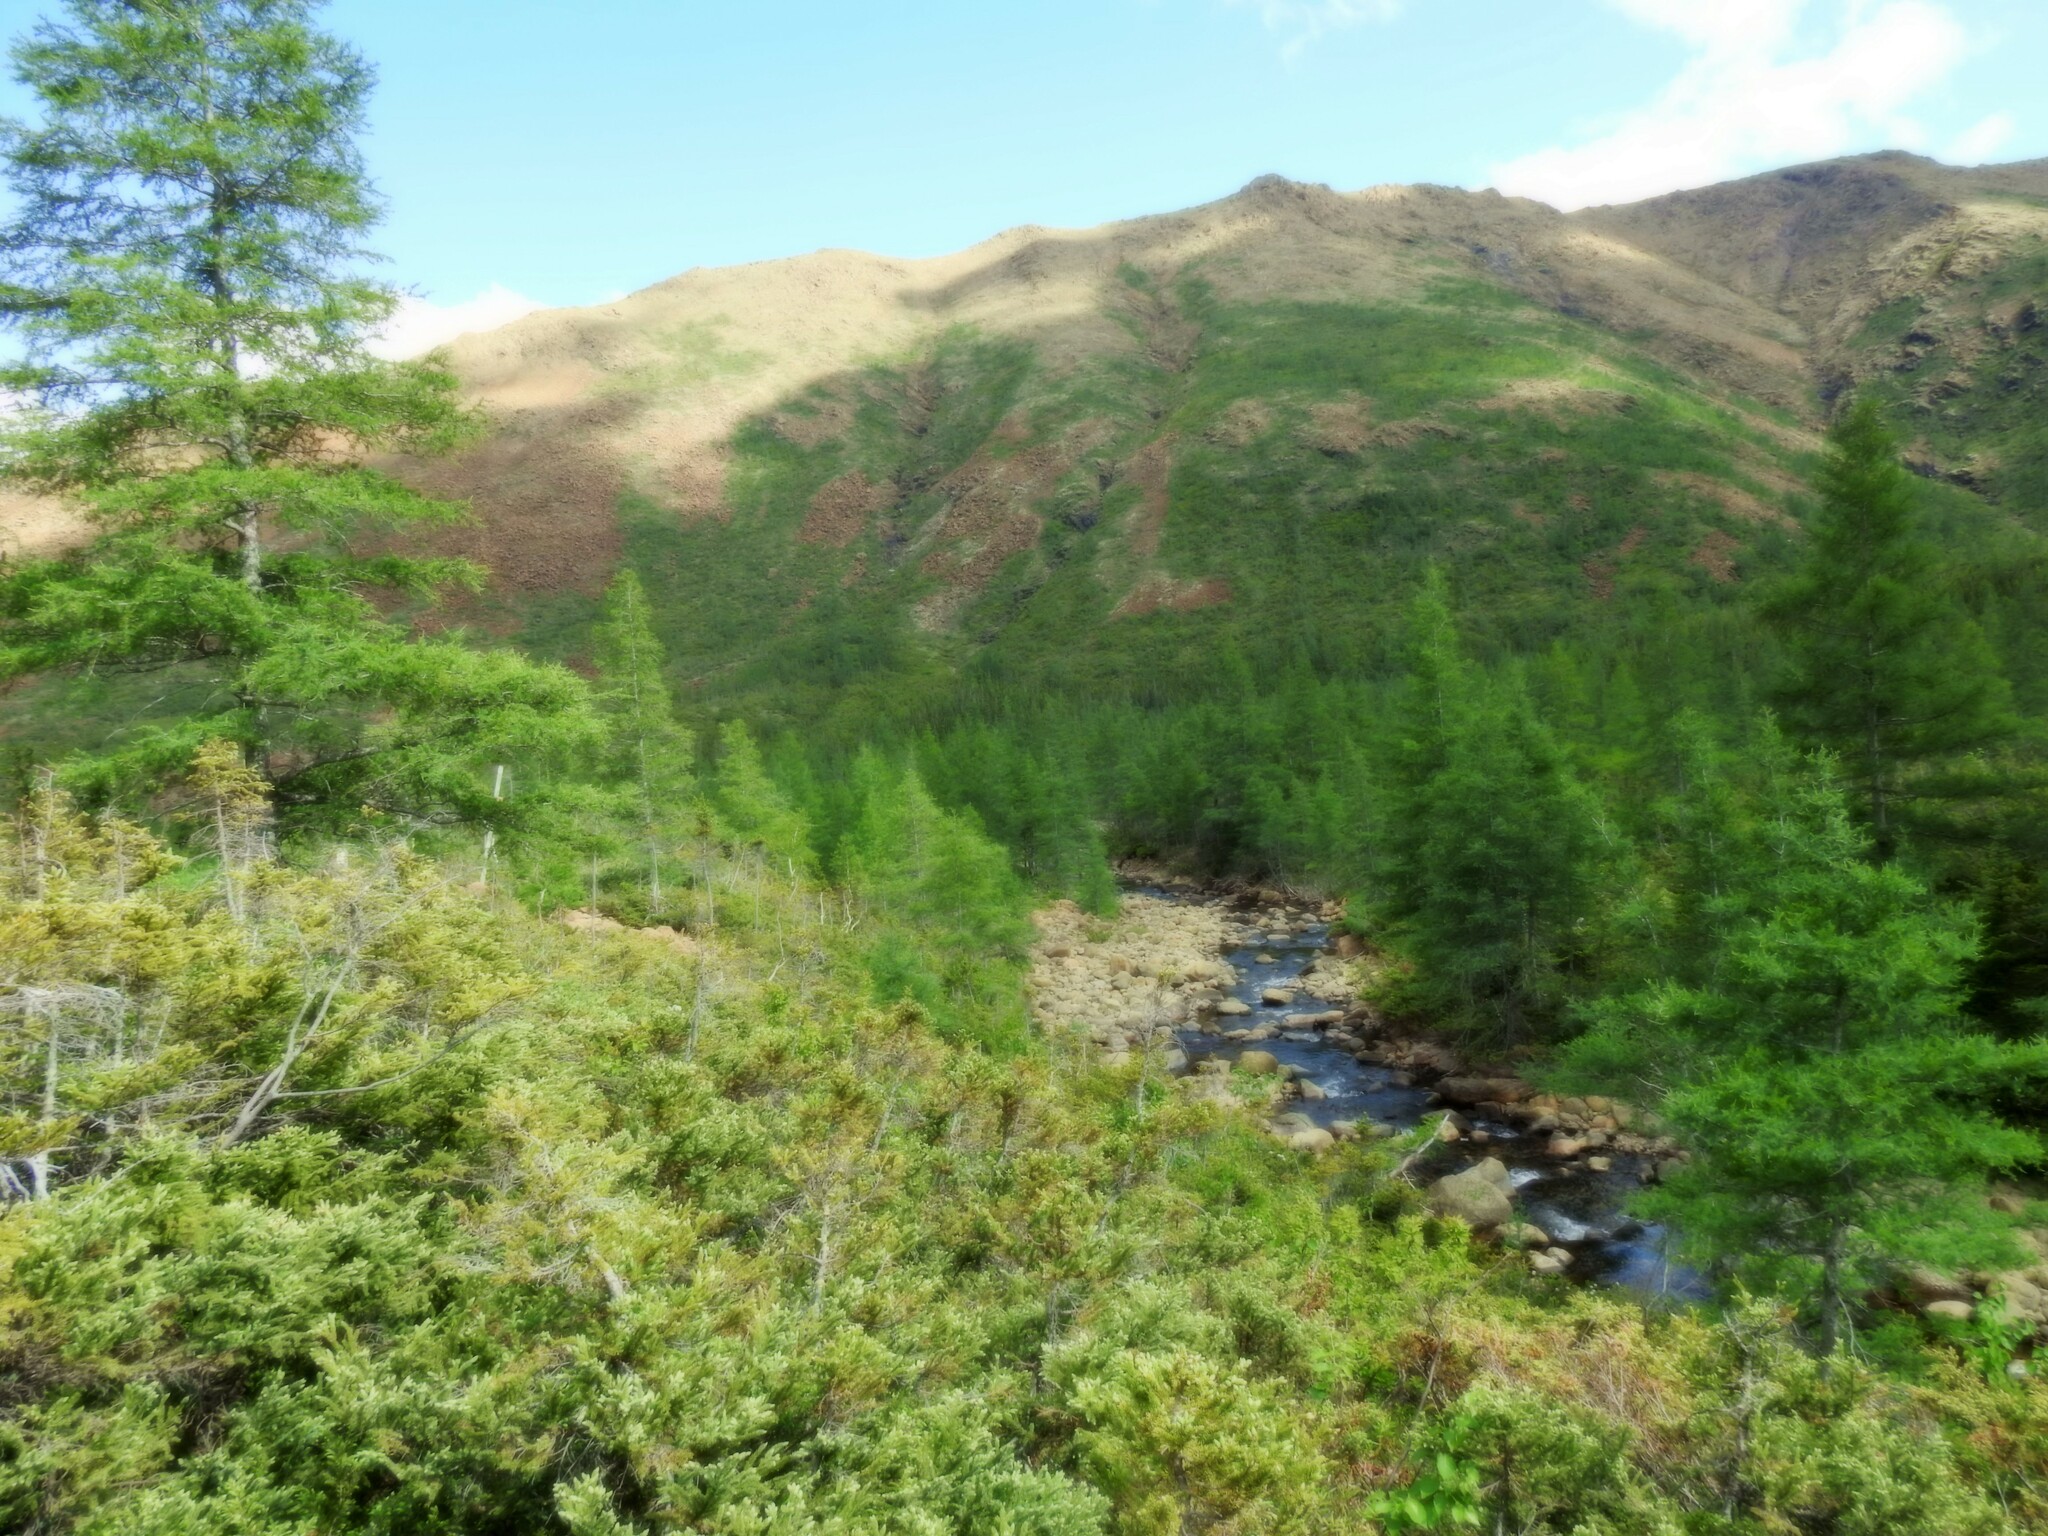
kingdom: Plantae
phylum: Tracheophyta
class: Pinopsida
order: Pinales
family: Pinaceae
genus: Larix
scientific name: Larix laricina
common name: American larch
